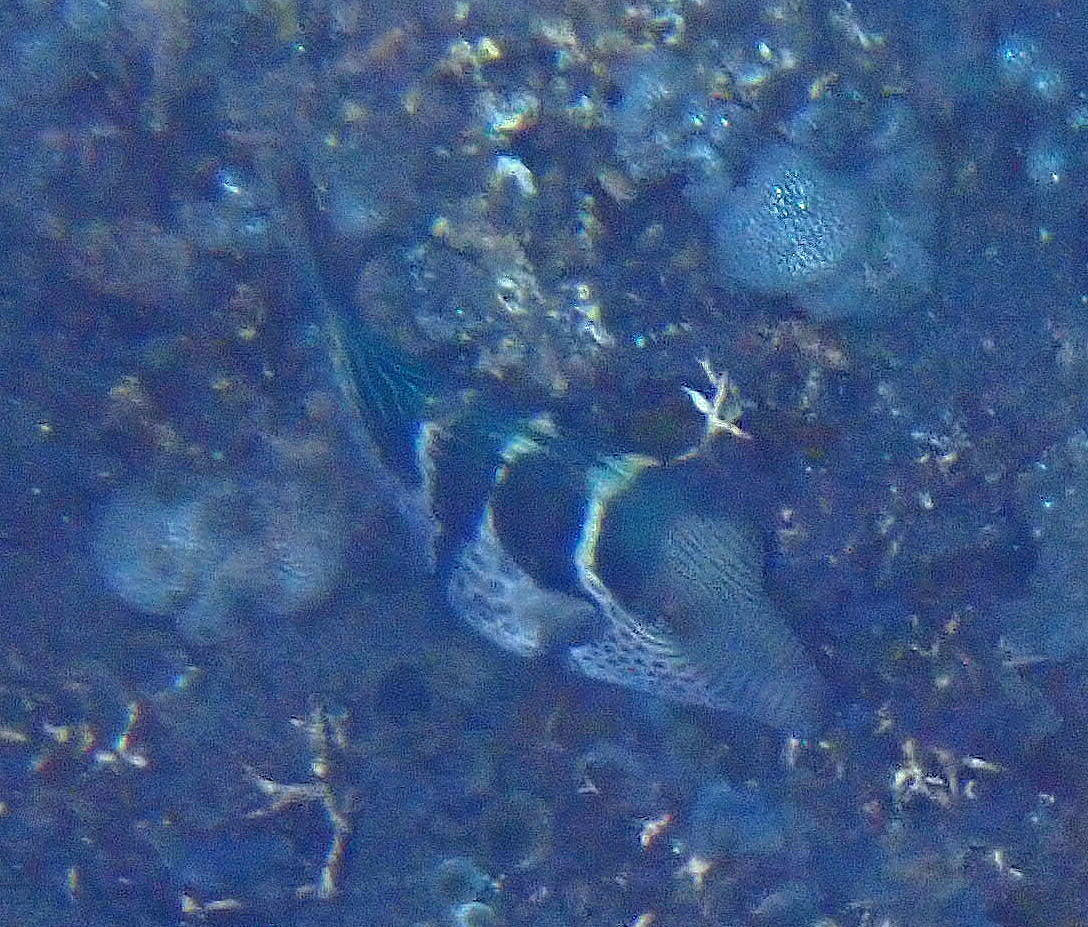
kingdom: Animalia
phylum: Chordata
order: Tetraodontiformes
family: Tetraodontidae
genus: Canthigaster
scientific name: Canthigaster valentini
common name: Banded toby
